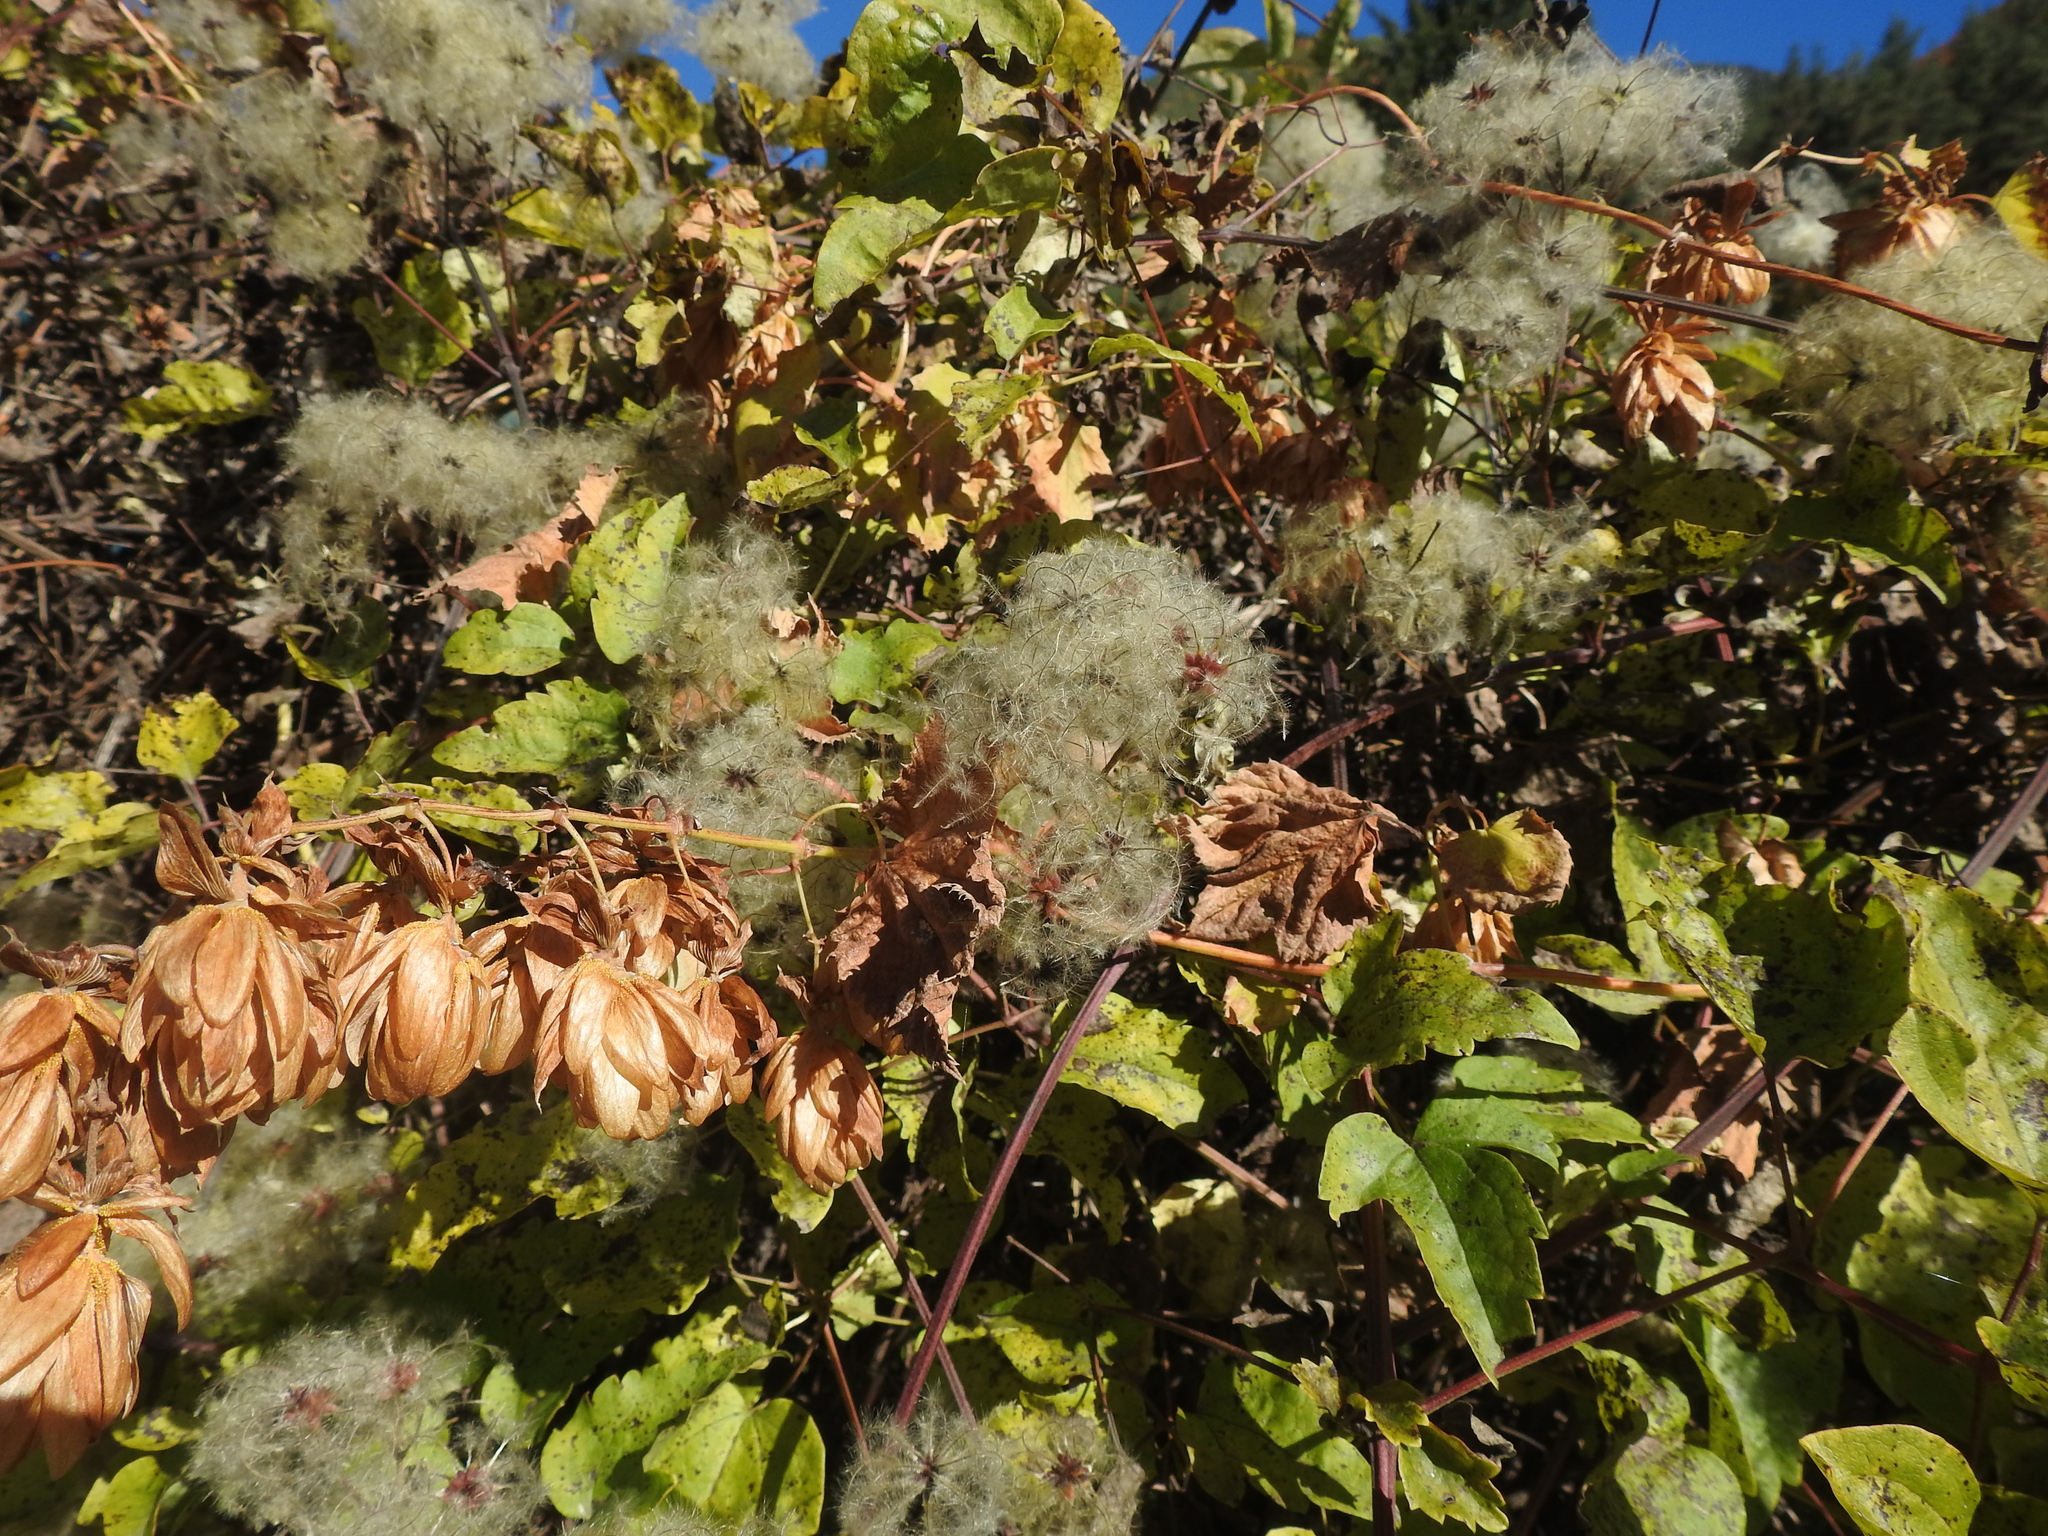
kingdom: Plantae
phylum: Tracheophyta
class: Magnoliopsida
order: Rosales
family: Cannabaceae
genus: Humulus
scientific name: Humulus lupulus
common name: Hop
